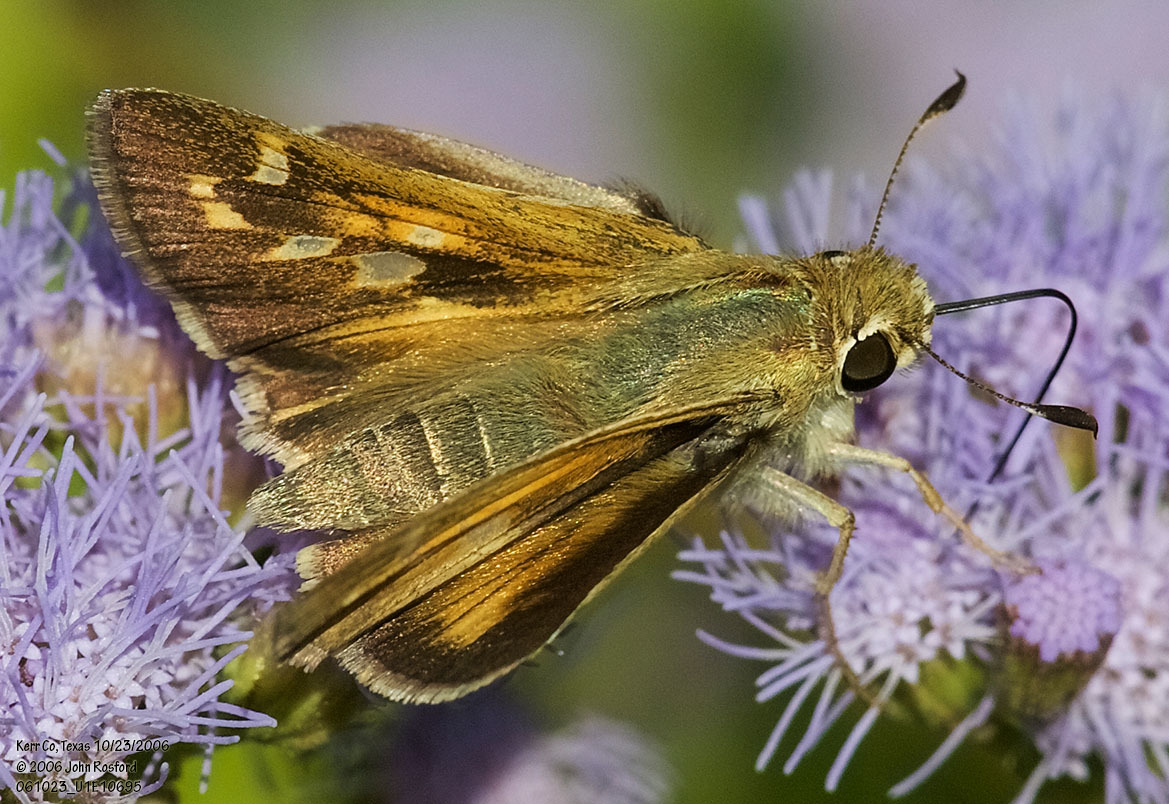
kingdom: Animalia
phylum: Arthropoda
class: Insecta
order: Lepidoptera
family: Hesperiidae
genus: Atalopedes
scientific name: Atalopedes
